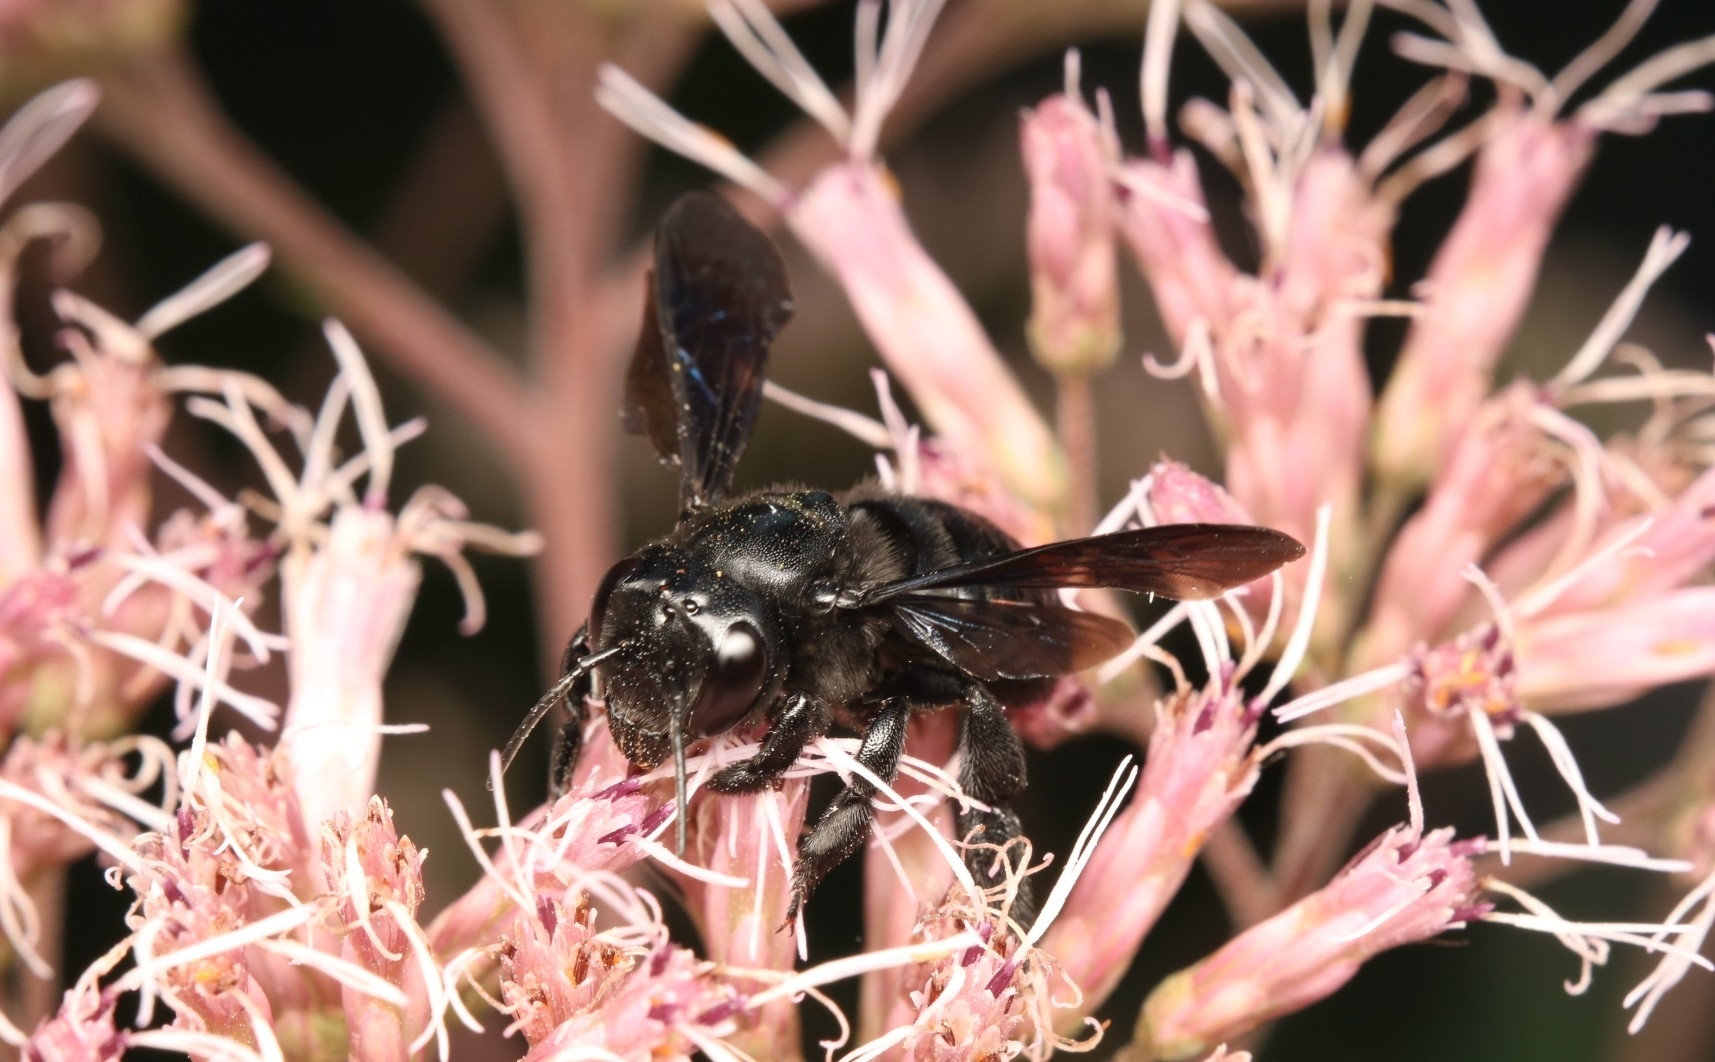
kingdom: Animalia
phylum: Arthropoda
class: Insecta
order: Hymenoptera
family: Megachilidae
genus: Megachile
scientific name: Megachile xylocopoides
